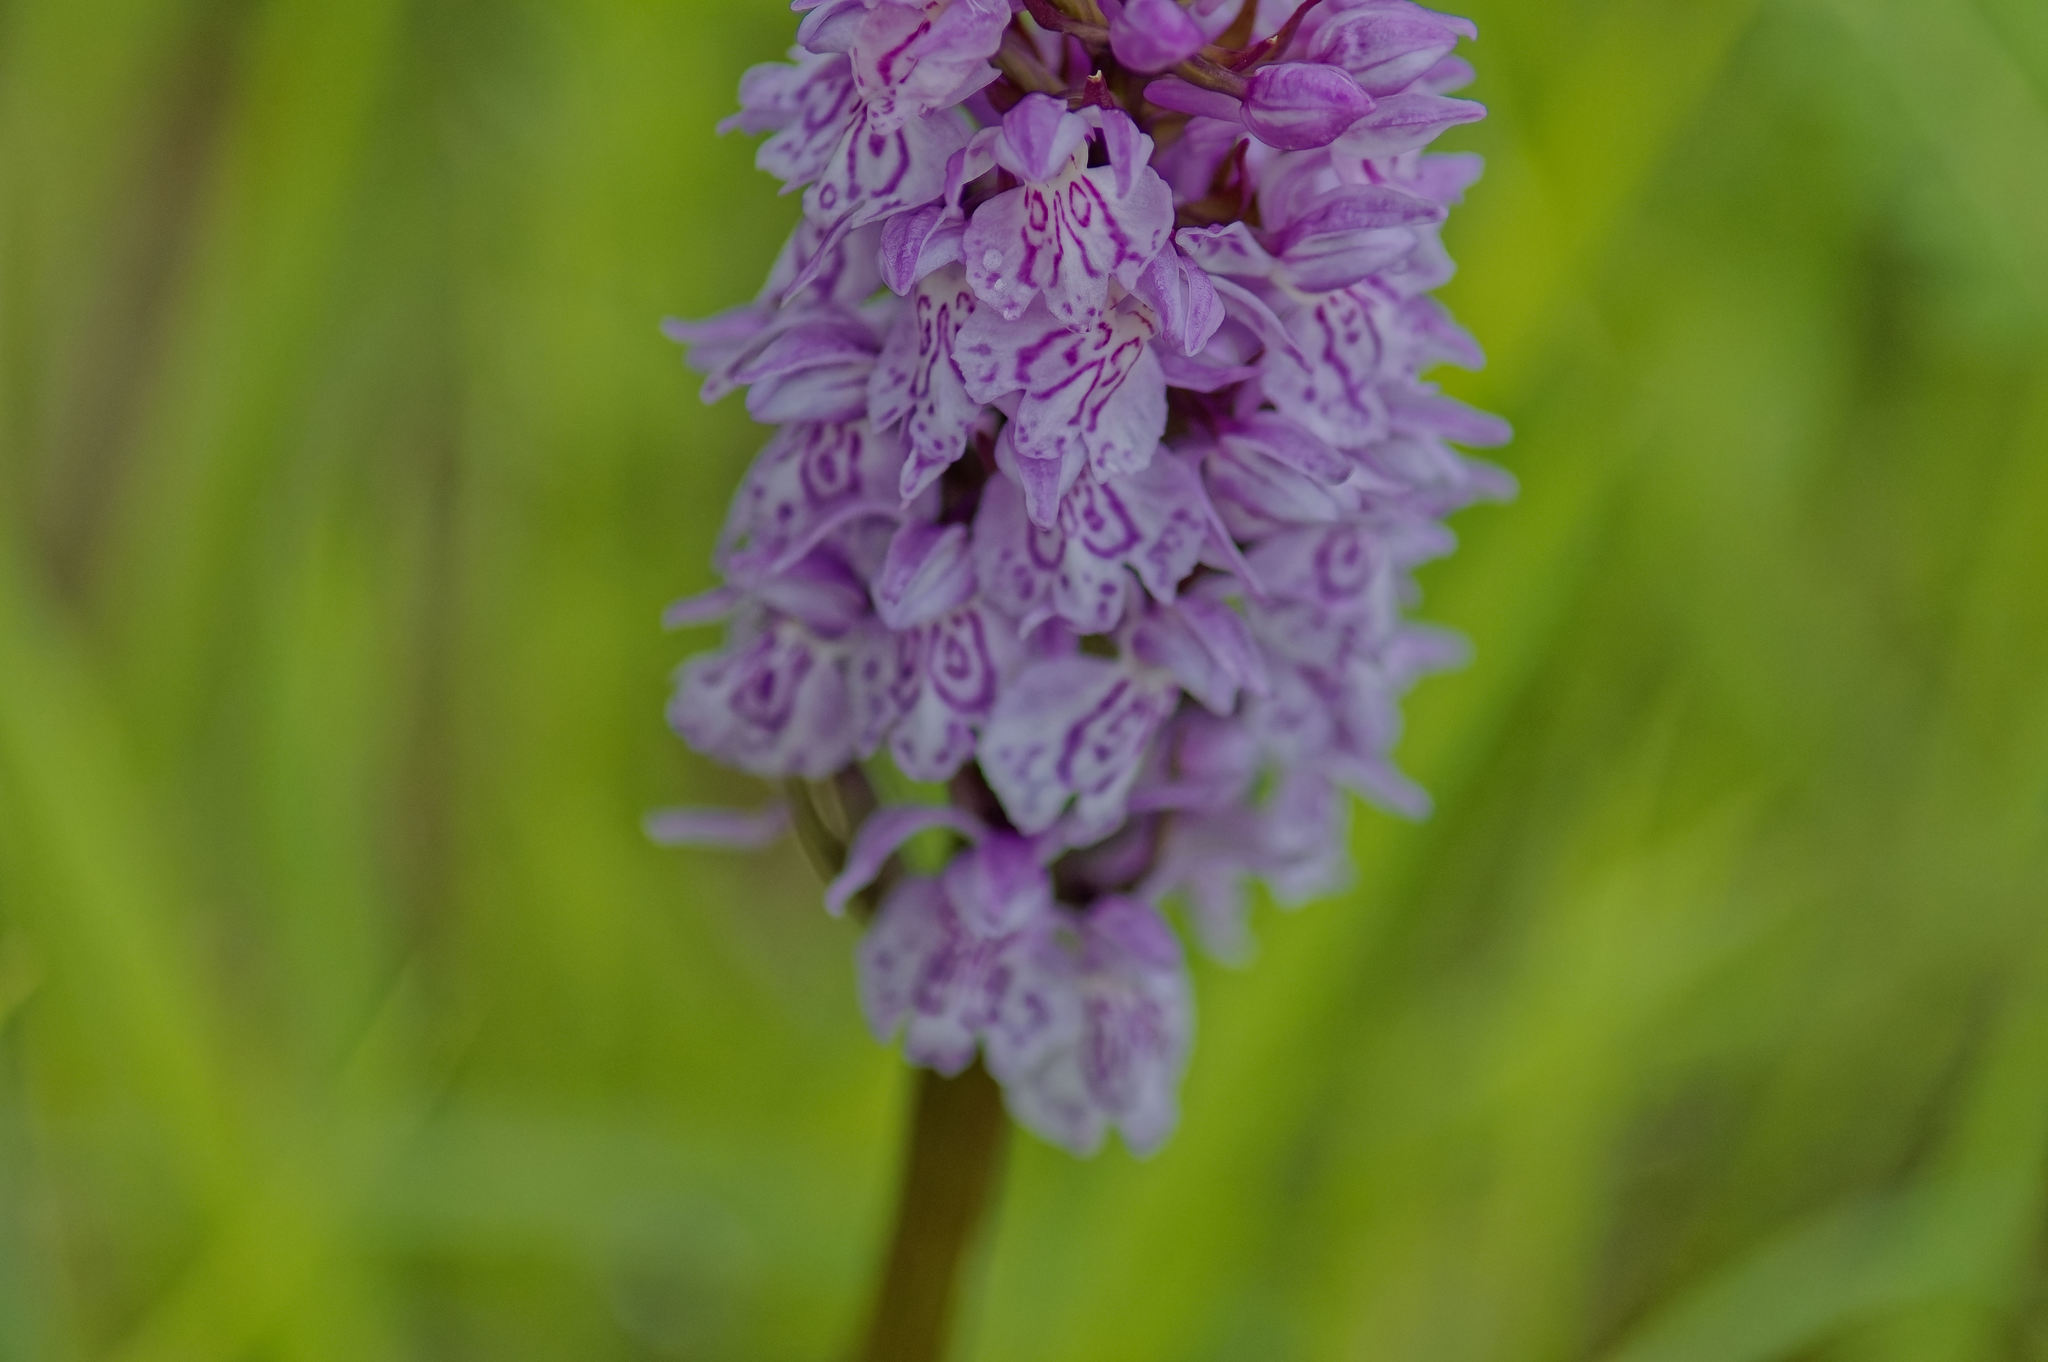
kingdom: Plantae
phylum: Tracheophyta
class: Liliopsida
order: Asparagales
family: Orchidaceae
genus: Dactylorhiza
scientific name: Dactylorhiza maculata
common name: Heath spotted-orchid
